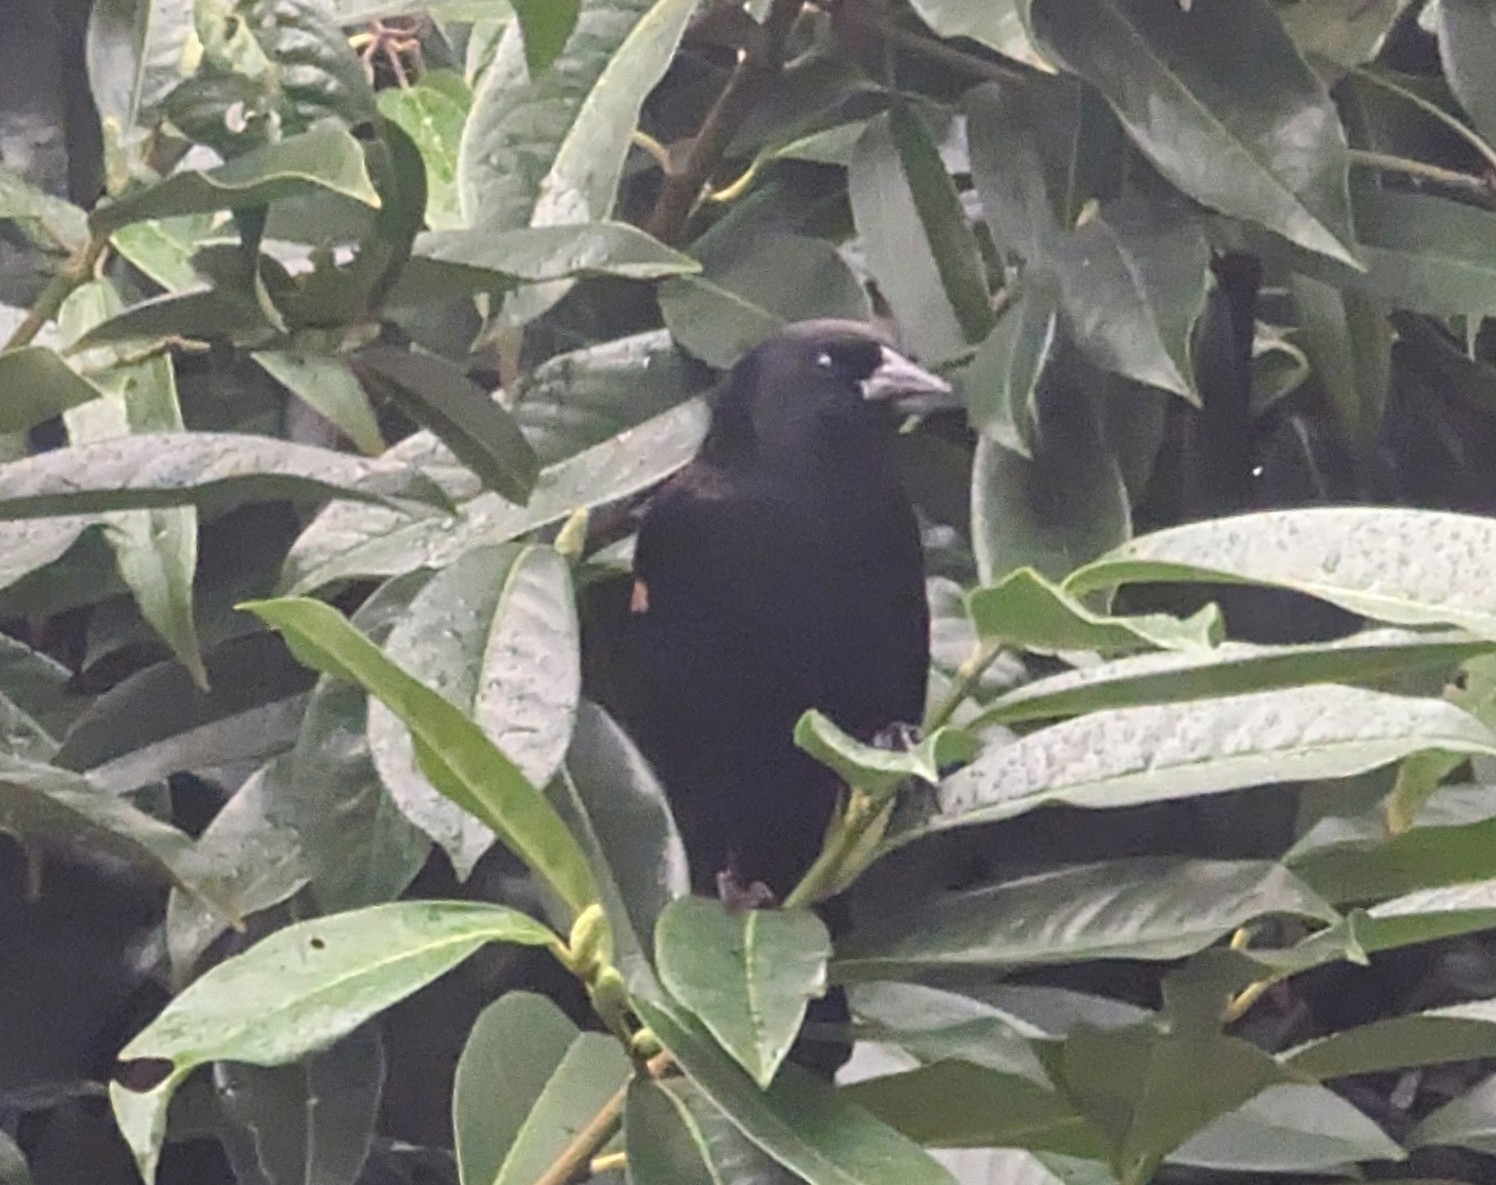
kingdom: Animalia
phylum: Chordata
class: Aves
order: Passeriformes
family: Icteridae
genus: Agelaius
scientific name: Agelaius phoeniceus
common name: Red-winged blackbird
